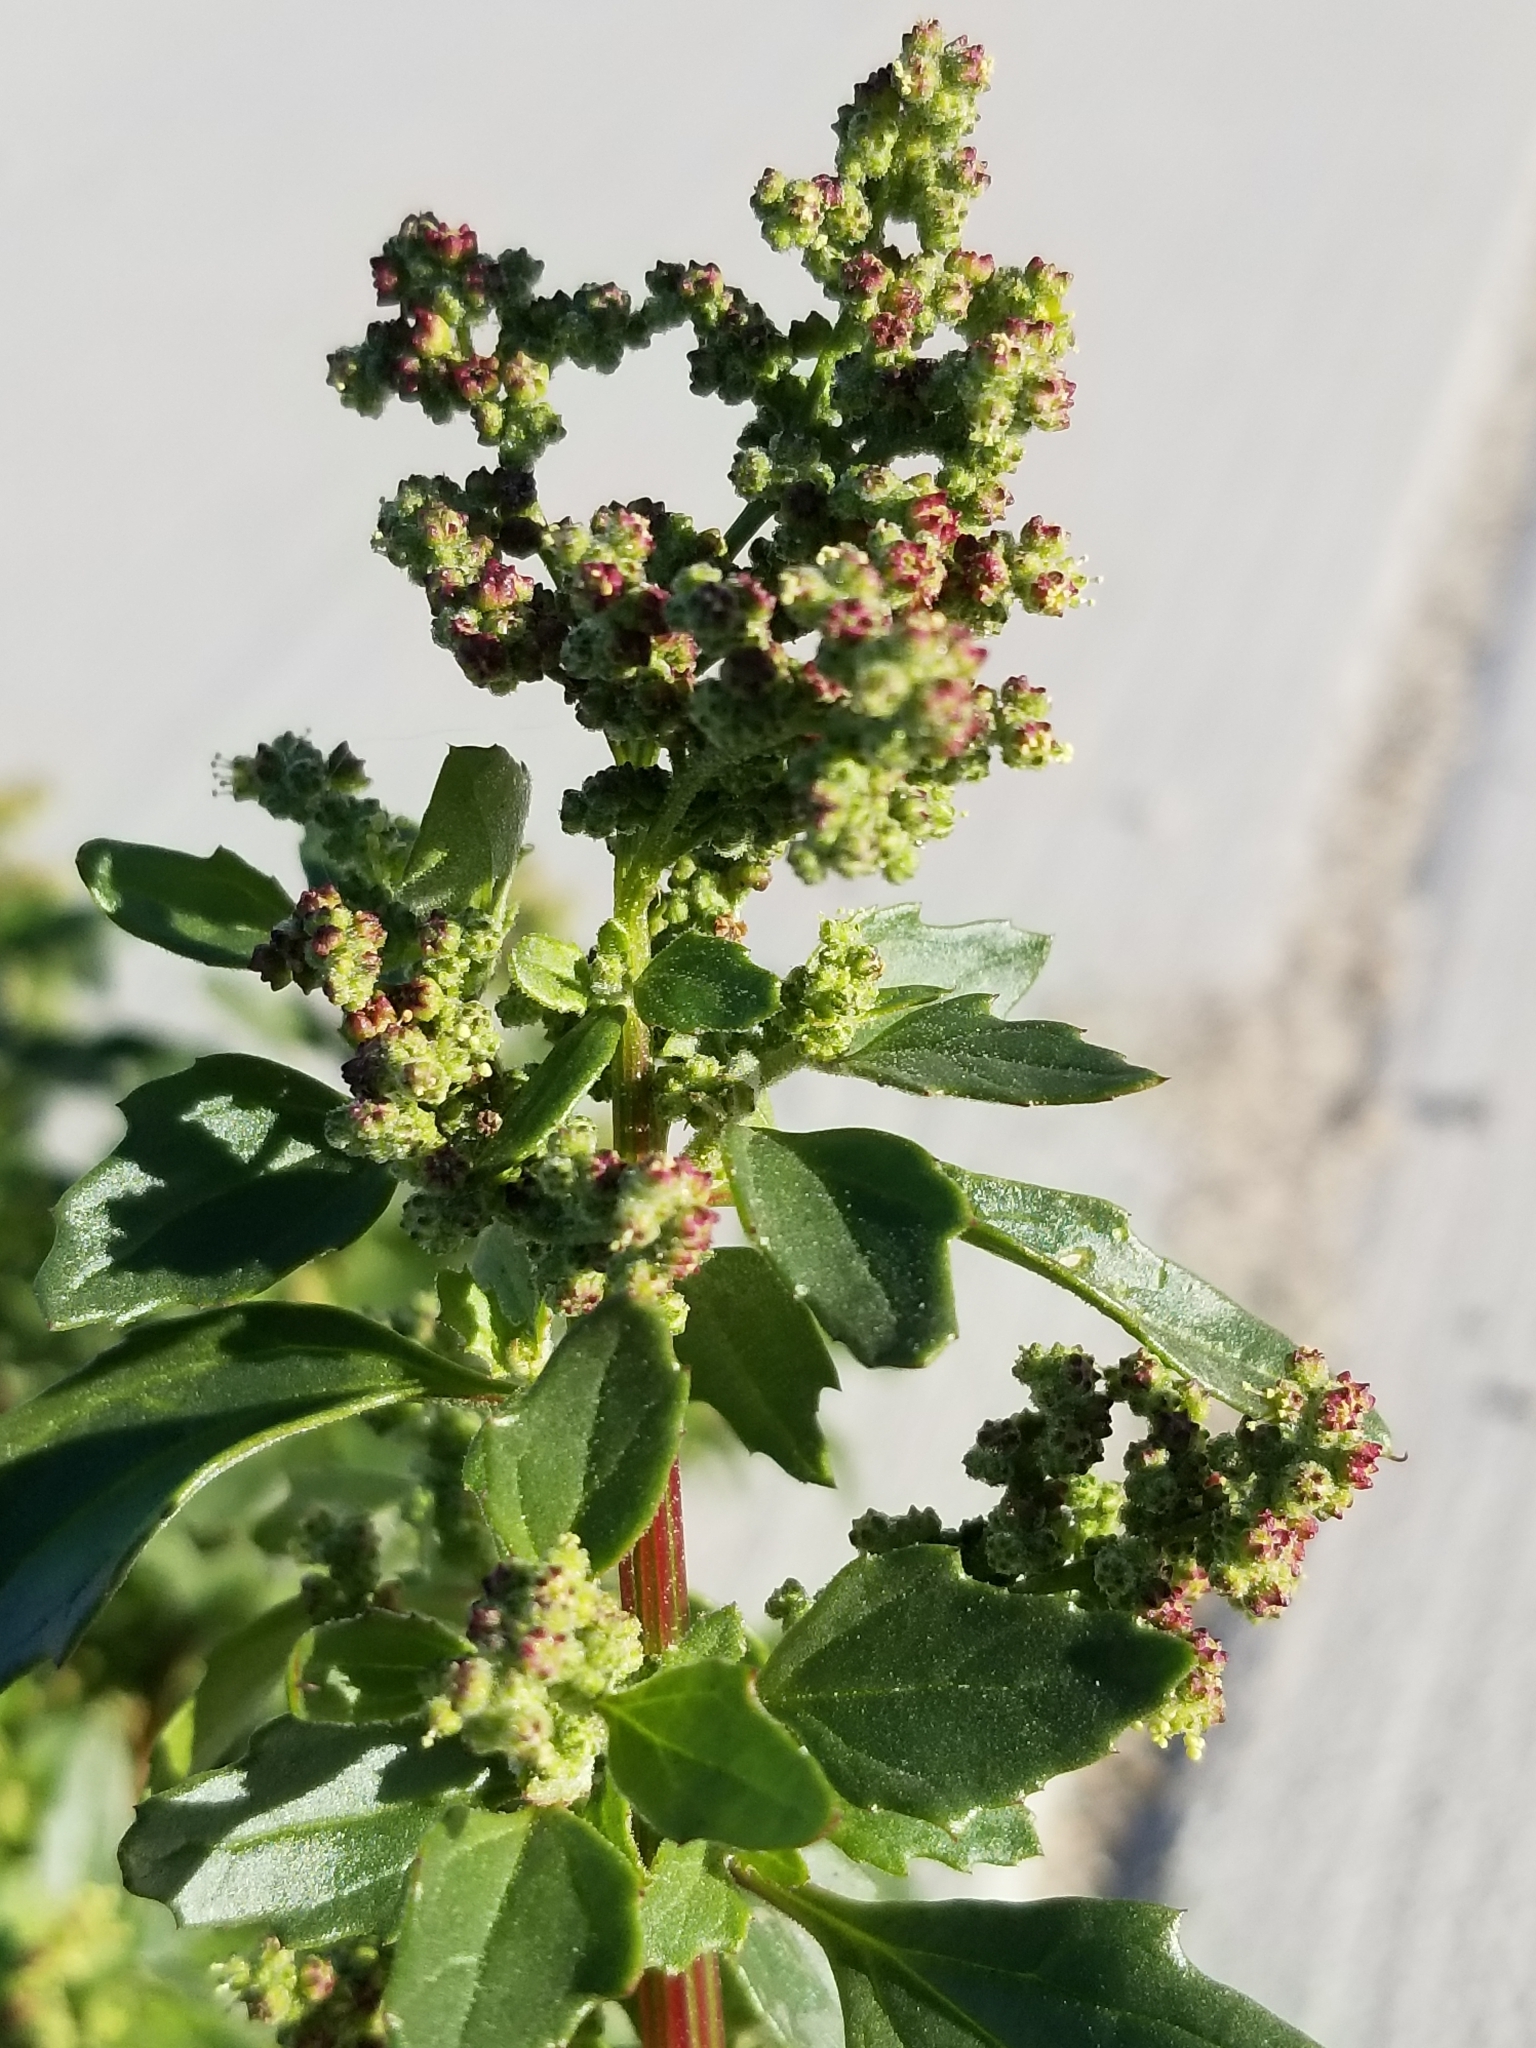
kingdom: Plantae
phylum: Tracheophyta
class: Magnoliopsida
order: Caryophyllales
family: Amaranthaceae
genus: Chenopodiastrum
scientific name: Chenopodiastrum murale
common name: Sowbane
